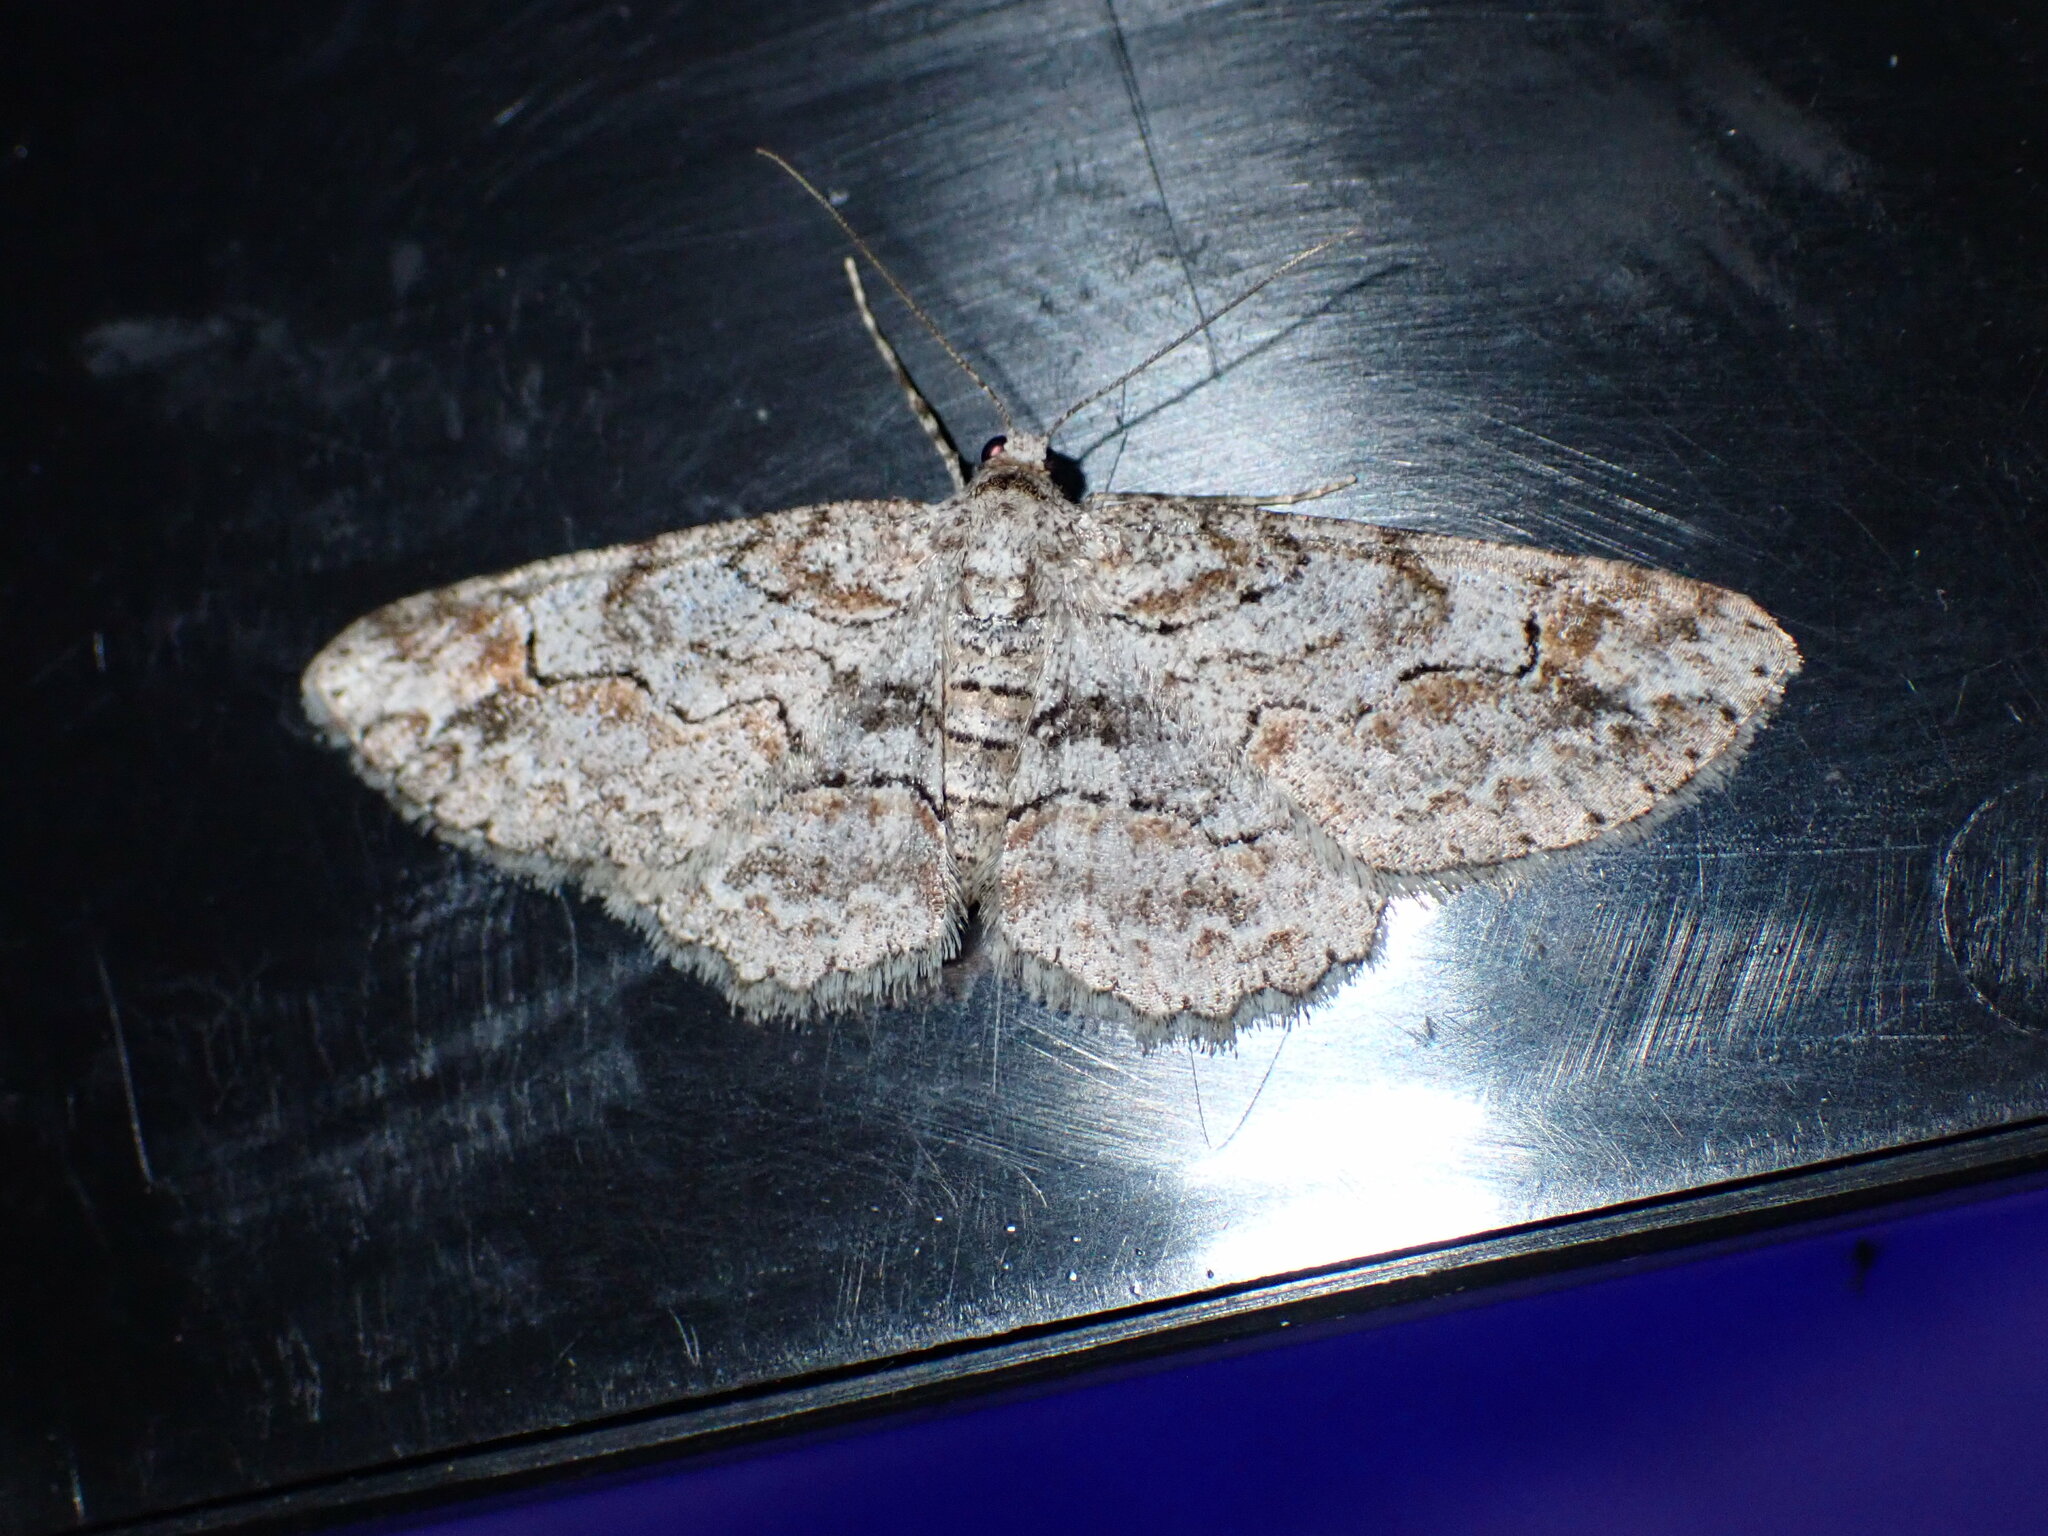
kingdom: Animalia
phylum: Arthropoda
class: Insecta
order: Lepidoptera
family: Geometridae
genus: Iridopsis
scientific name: Iridopsis emasculatum
